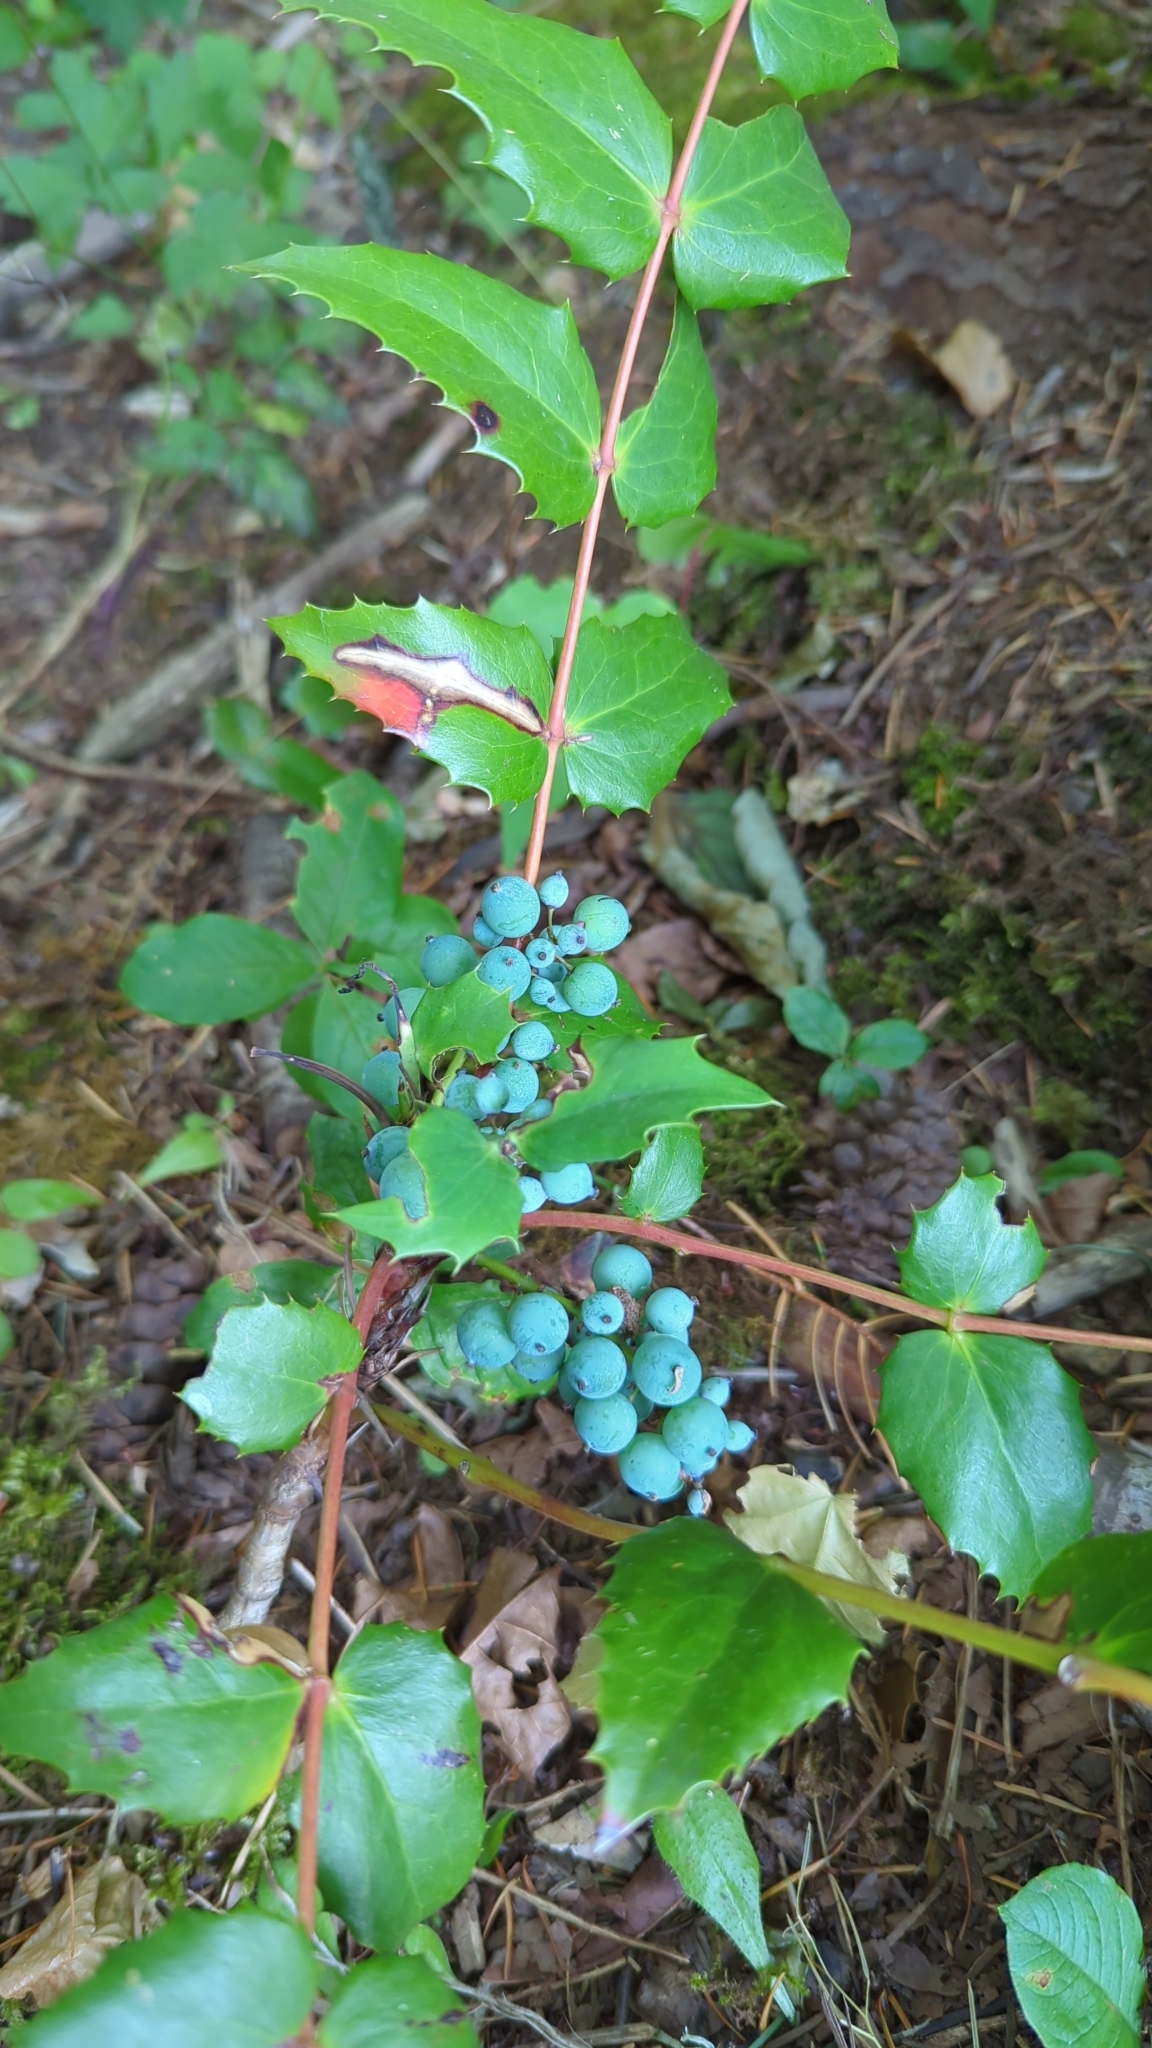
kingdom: Plantae
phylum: Tracheophyta
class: Magnoliopsida
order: Ranunculales
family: Berberidaceae
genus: Mahonia
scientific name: Mahonia nervosa
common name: Cascade oregon-grape
